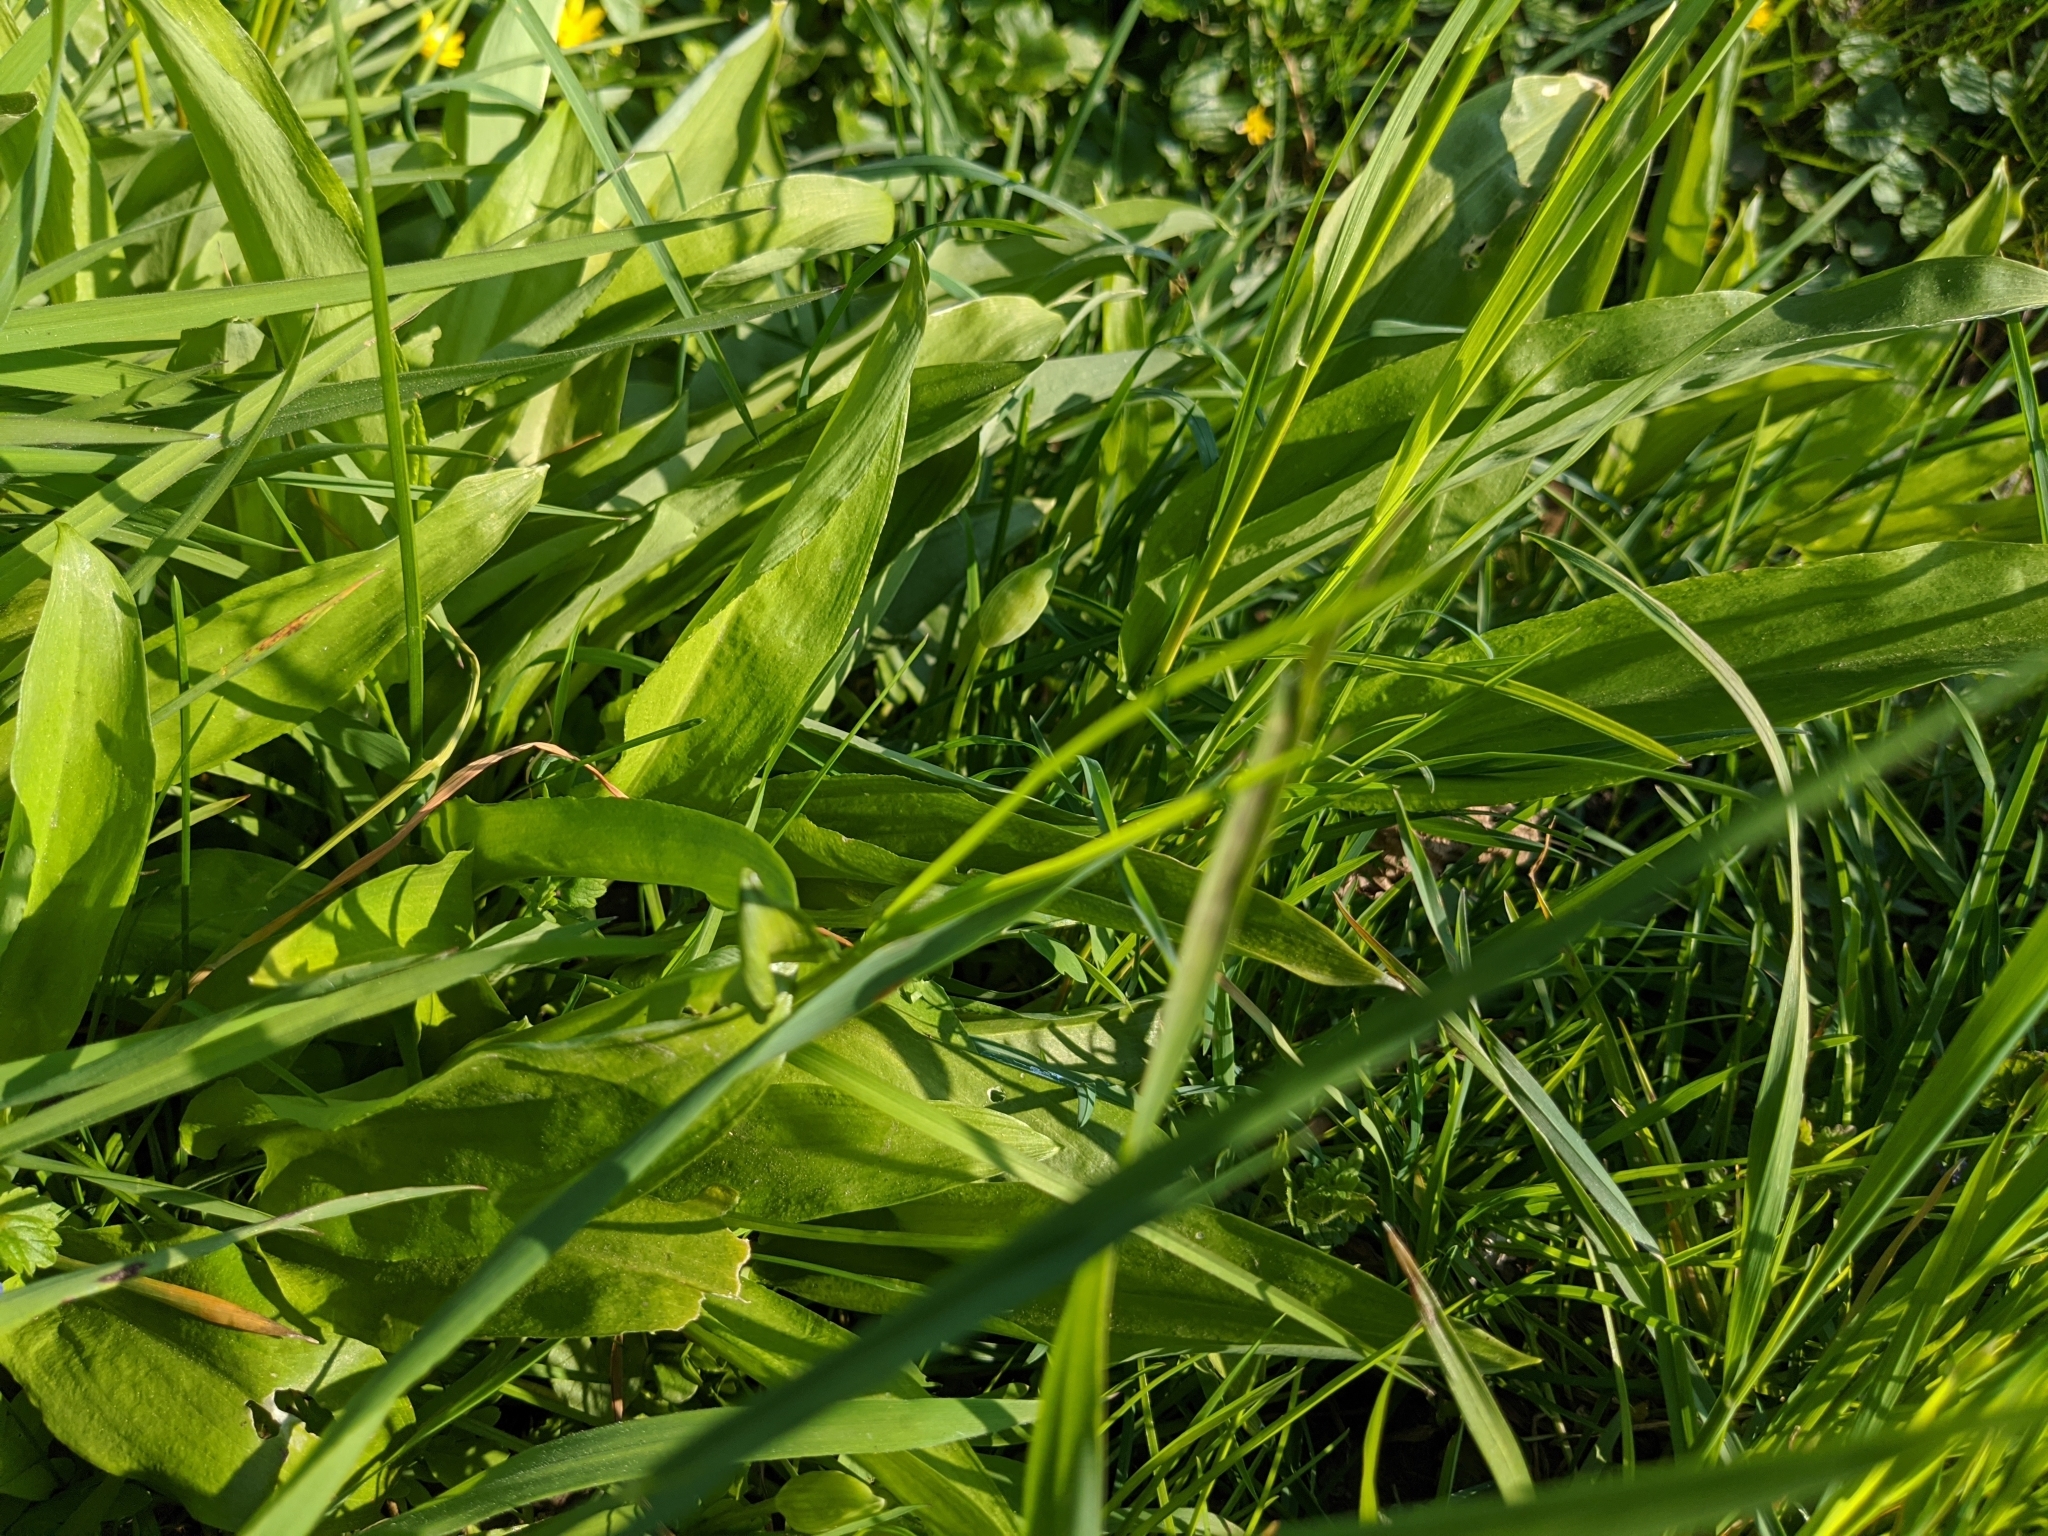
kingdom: Plantae
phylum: Tracheophyta
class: Liliopsida
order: Asparagales
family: Amaryllidaceae
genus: Allium
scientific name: Allium ursinum
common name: Ramsons
